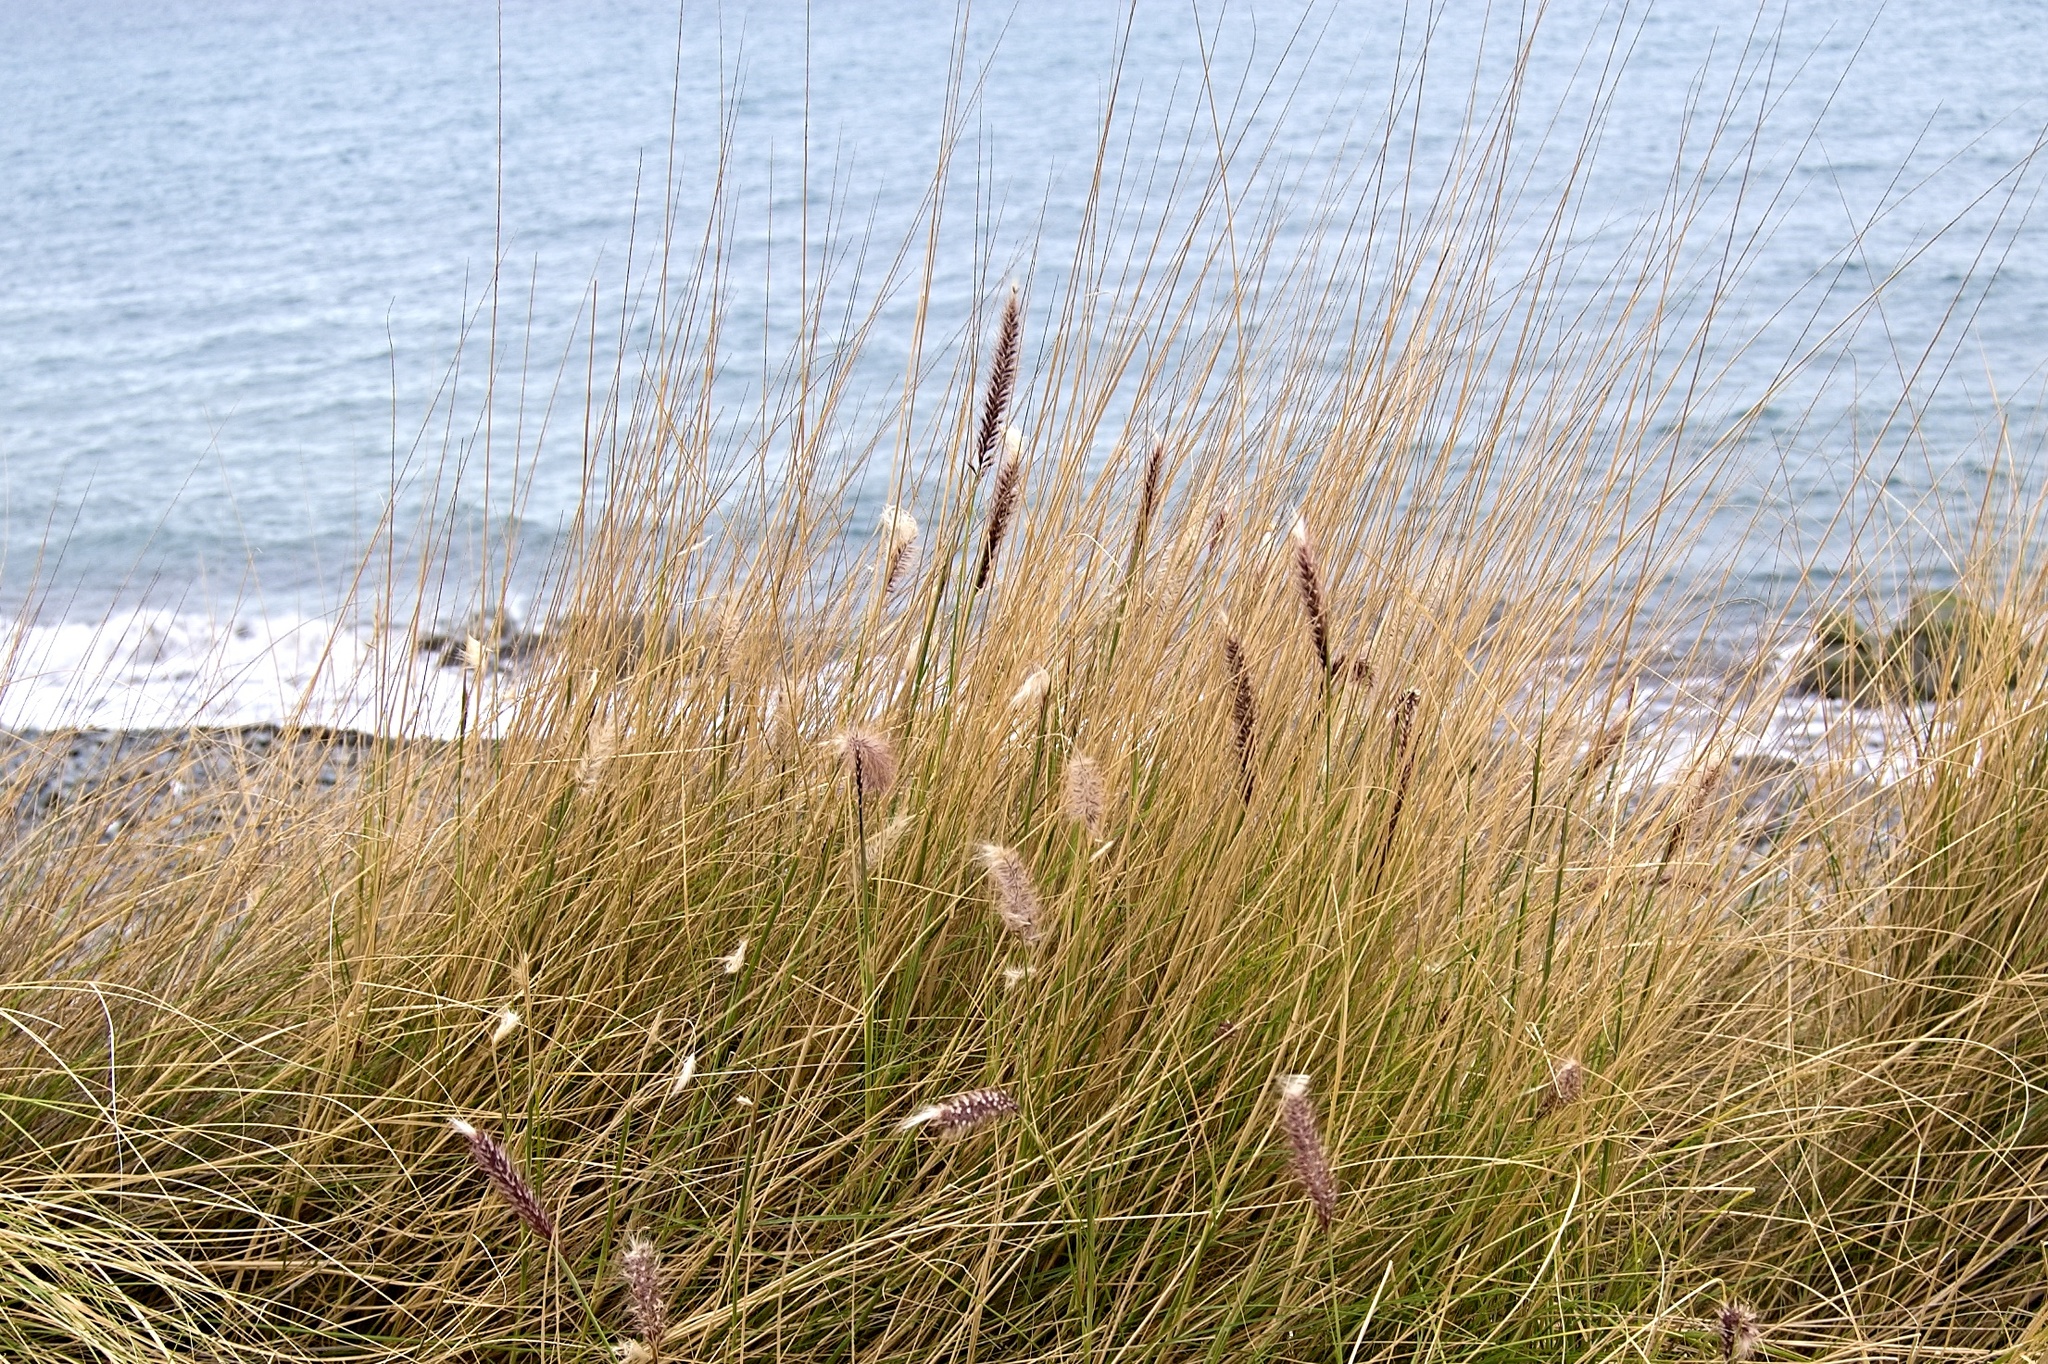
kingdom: Plantae
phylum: Tracheophyta
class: Liliopsida
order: Poales
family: Poaceae
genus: Cenchrus
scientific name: Cenchrus setaceus
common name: Crimson fountaingrass
